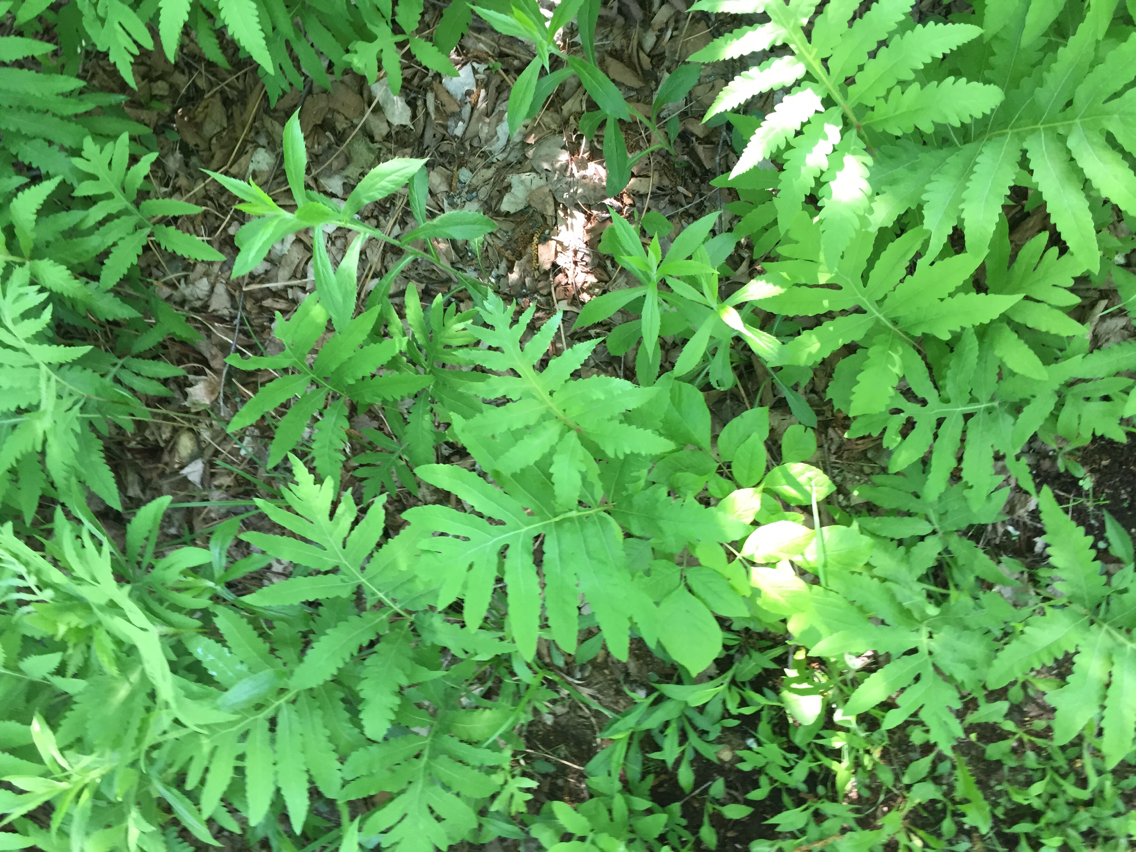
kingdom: Plantae
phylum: Tracheophyta
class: Polypodiopsida
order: Polypodiales
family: Onocleaceae
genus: Onoclea
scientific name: Onoclea sensibilis
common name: Sensitive fern
